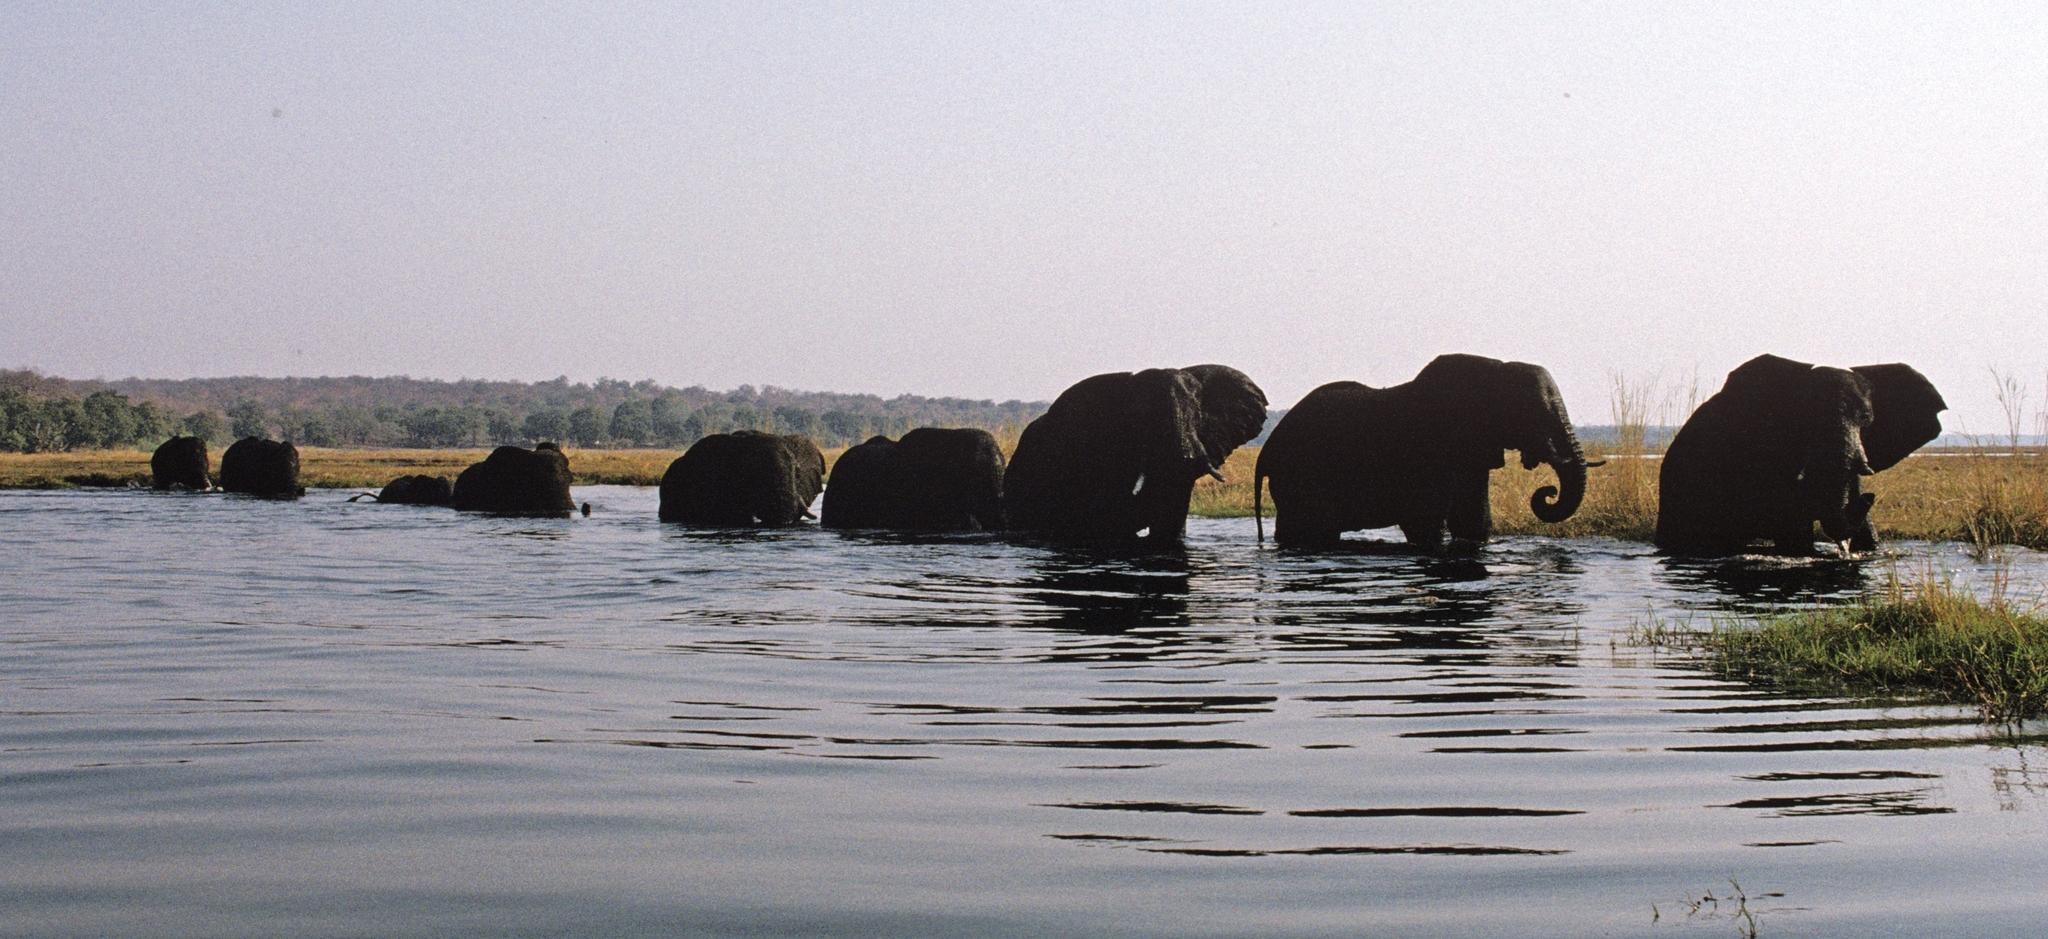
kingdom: Animalia
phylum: Chordata
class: Mammalia
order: Proboscidea
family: Elephantidae
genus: Loxodonta
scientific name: Loxodonta africana
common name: African elephant
